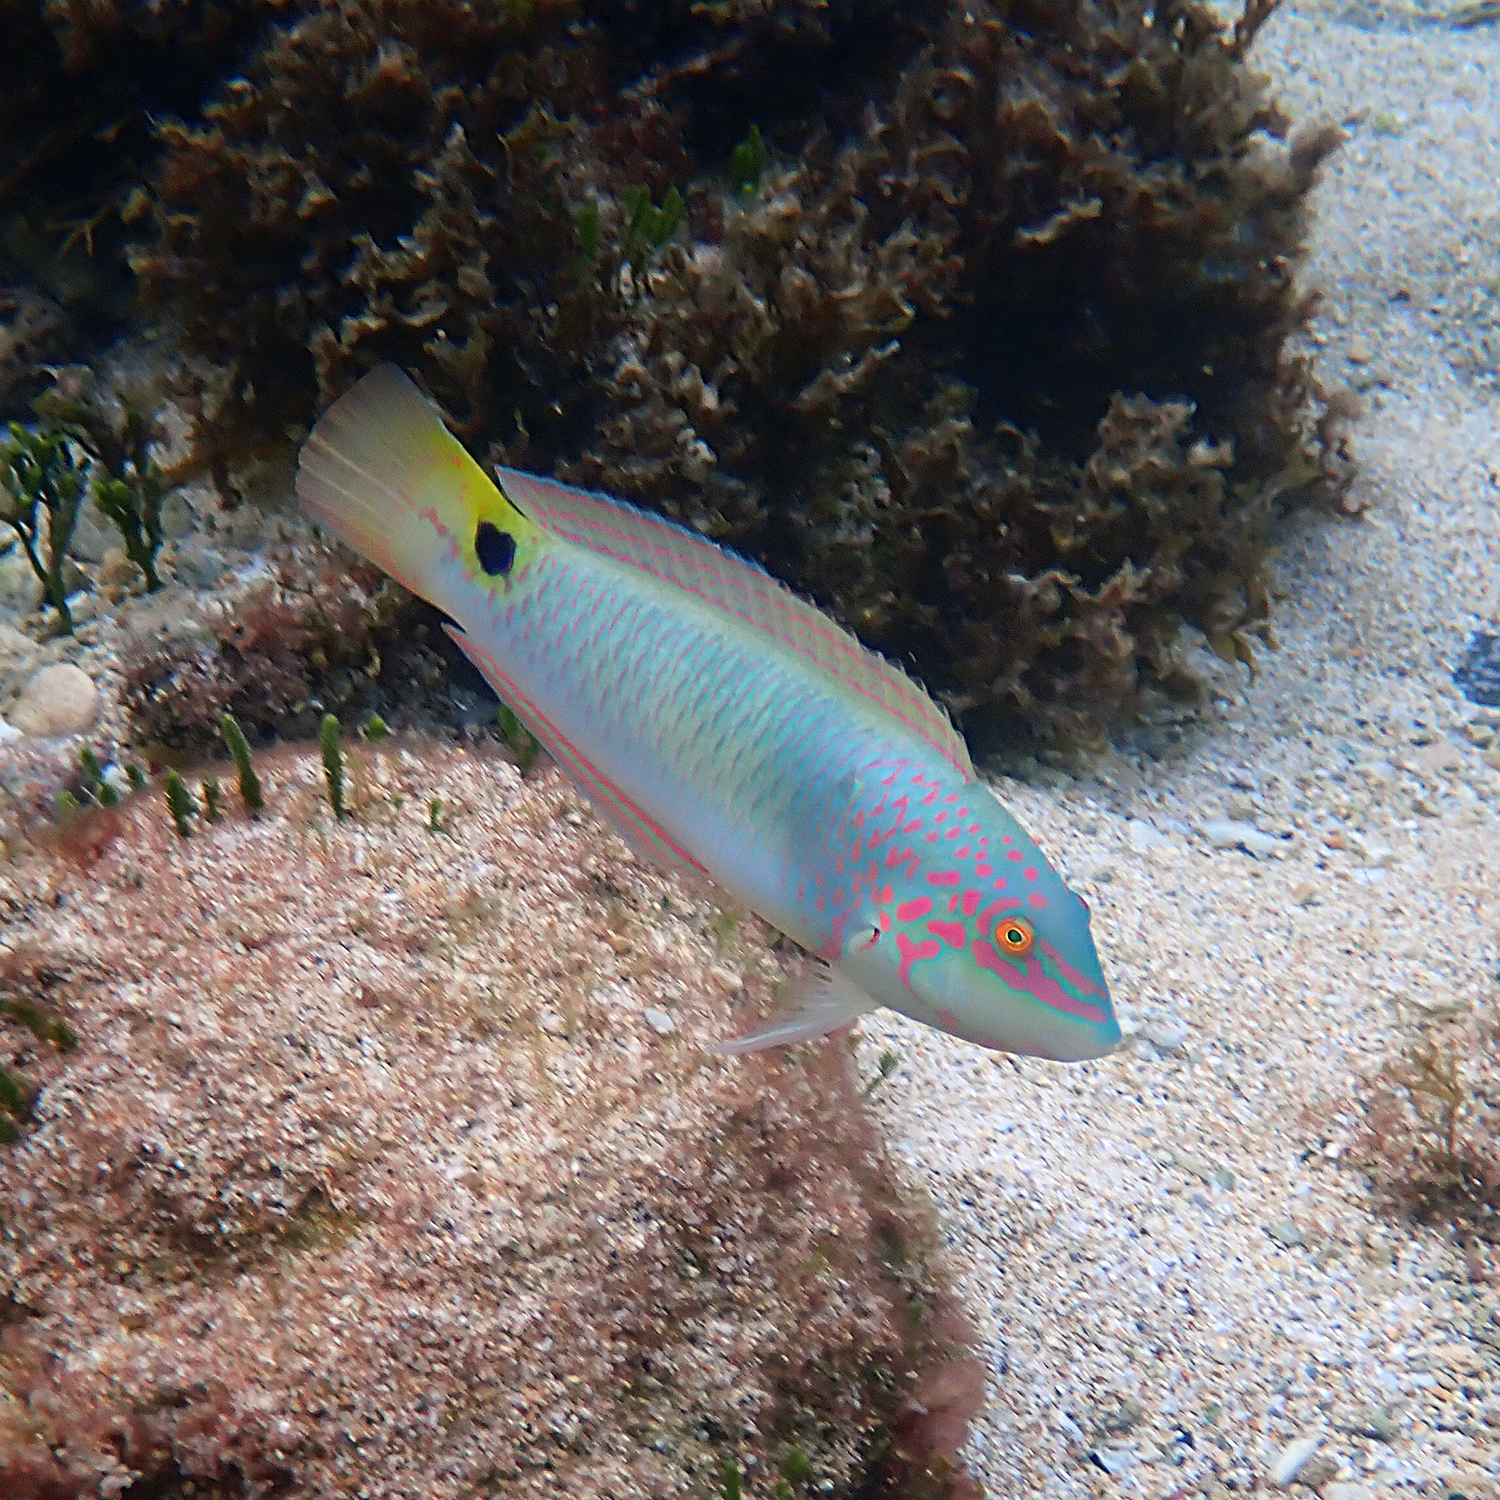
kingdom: Animalia
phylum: Chordata
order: Perciformes
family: Labridae
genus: Halichoeres
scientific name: Halichoeres trimaculatus
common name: Three-spot wrasse
